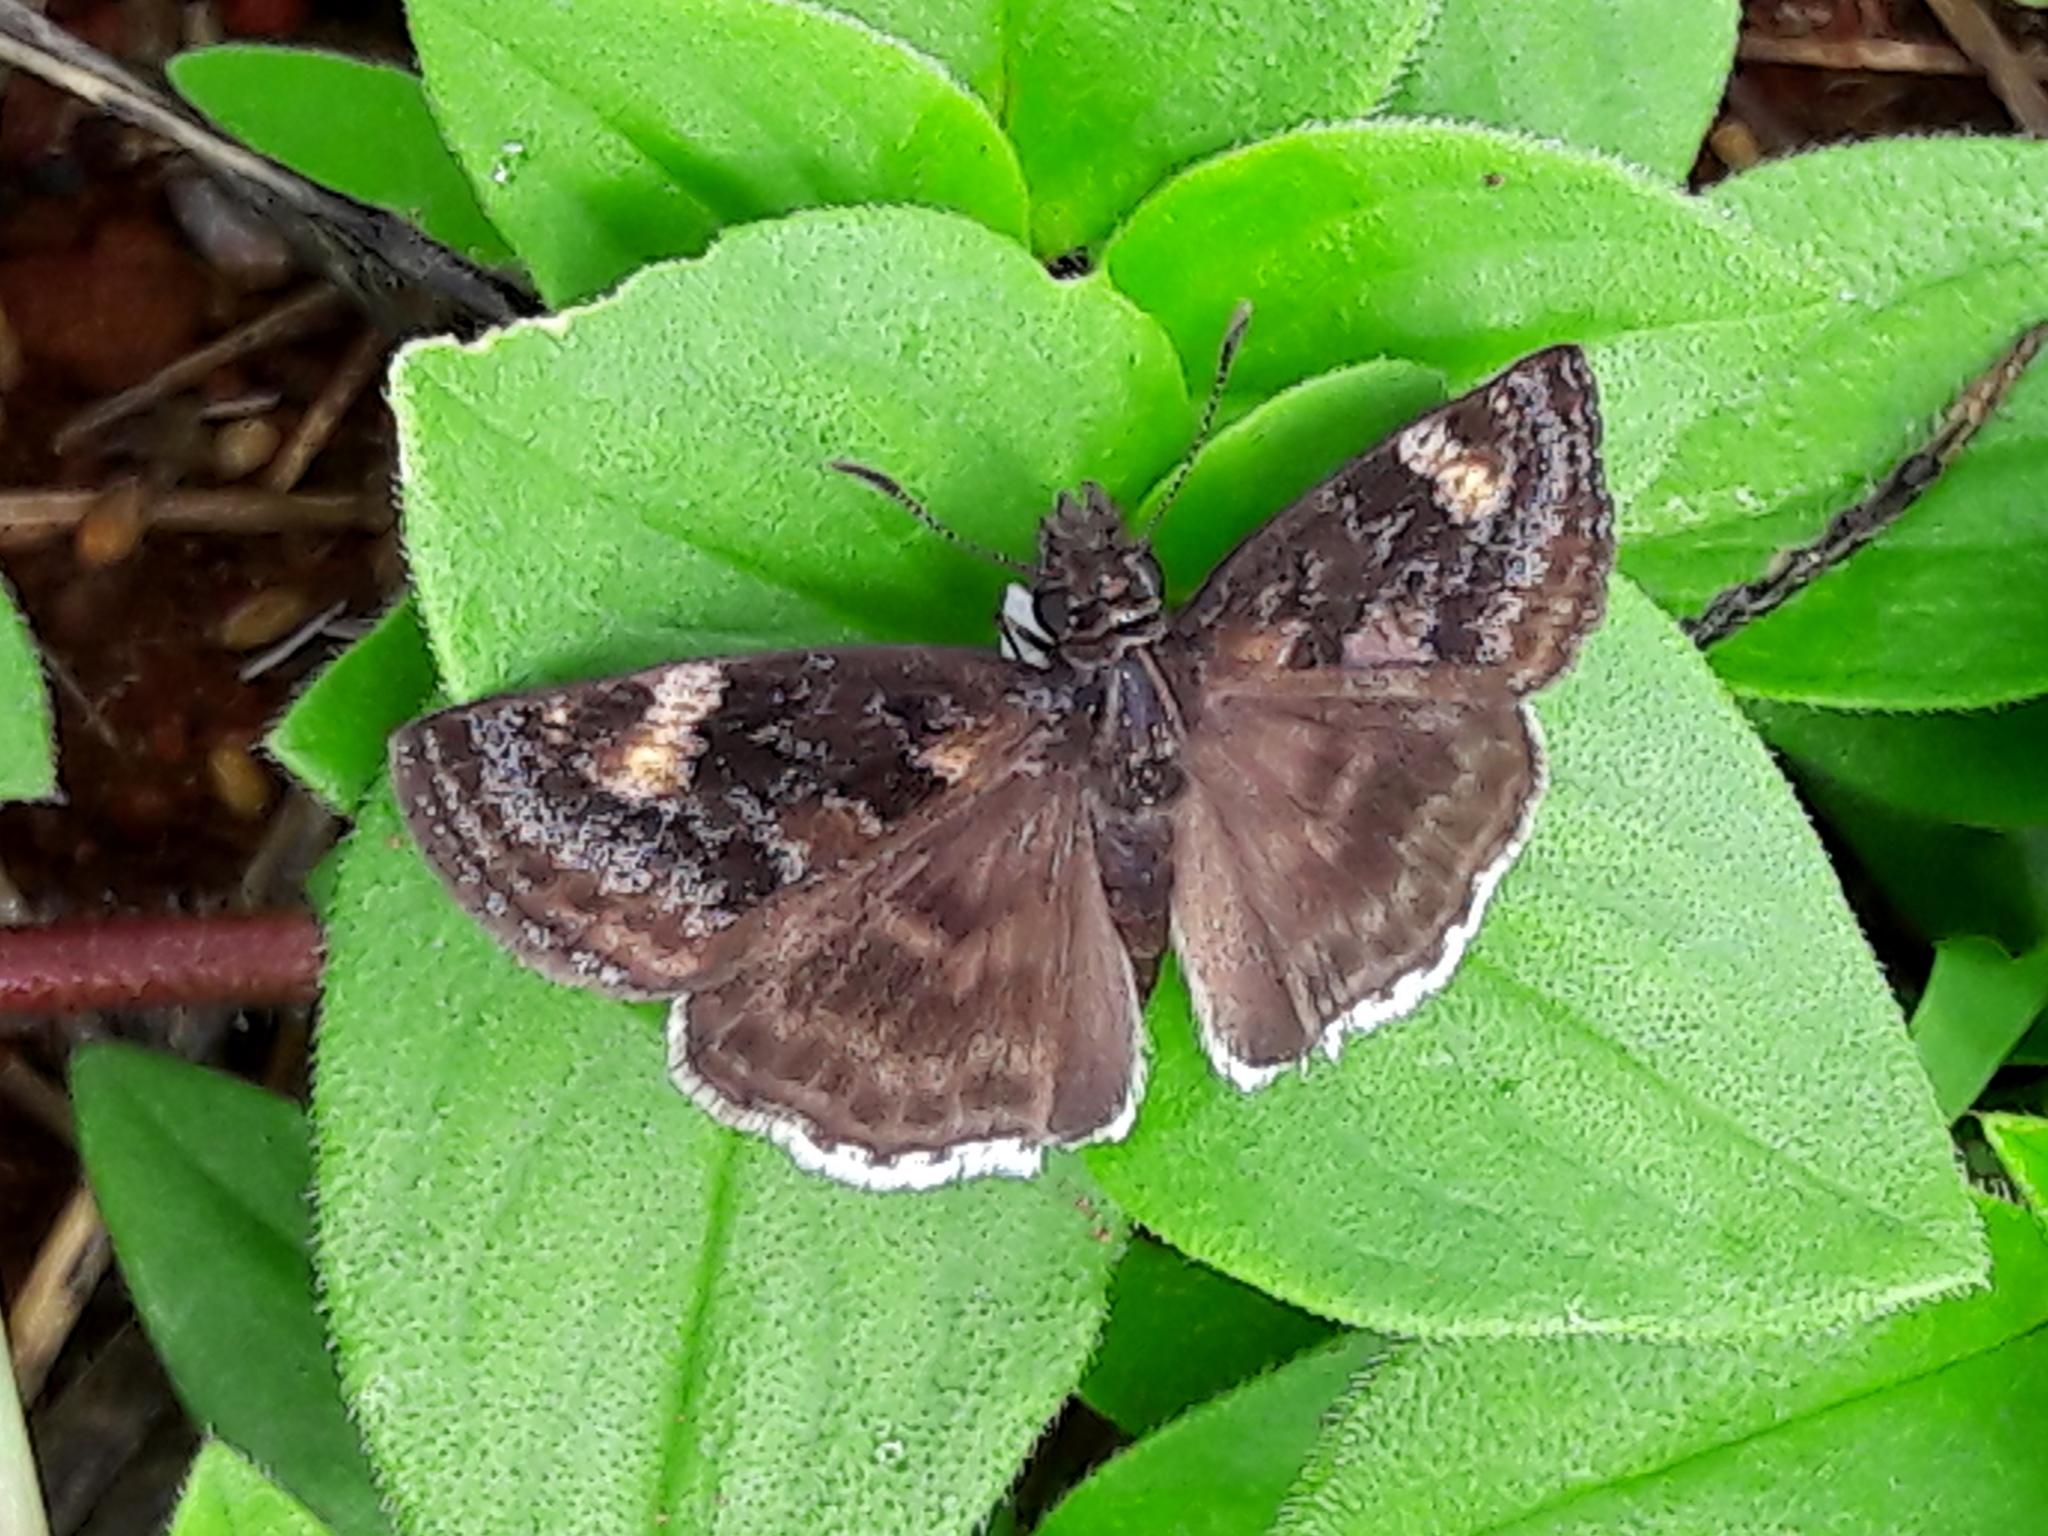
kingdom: Animalia
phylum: Arthropoda
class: Insecta
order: Lepidoptera
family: Hesperiidae
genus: Gesta
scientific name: Gesta gesta
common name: Gesta duskywing
